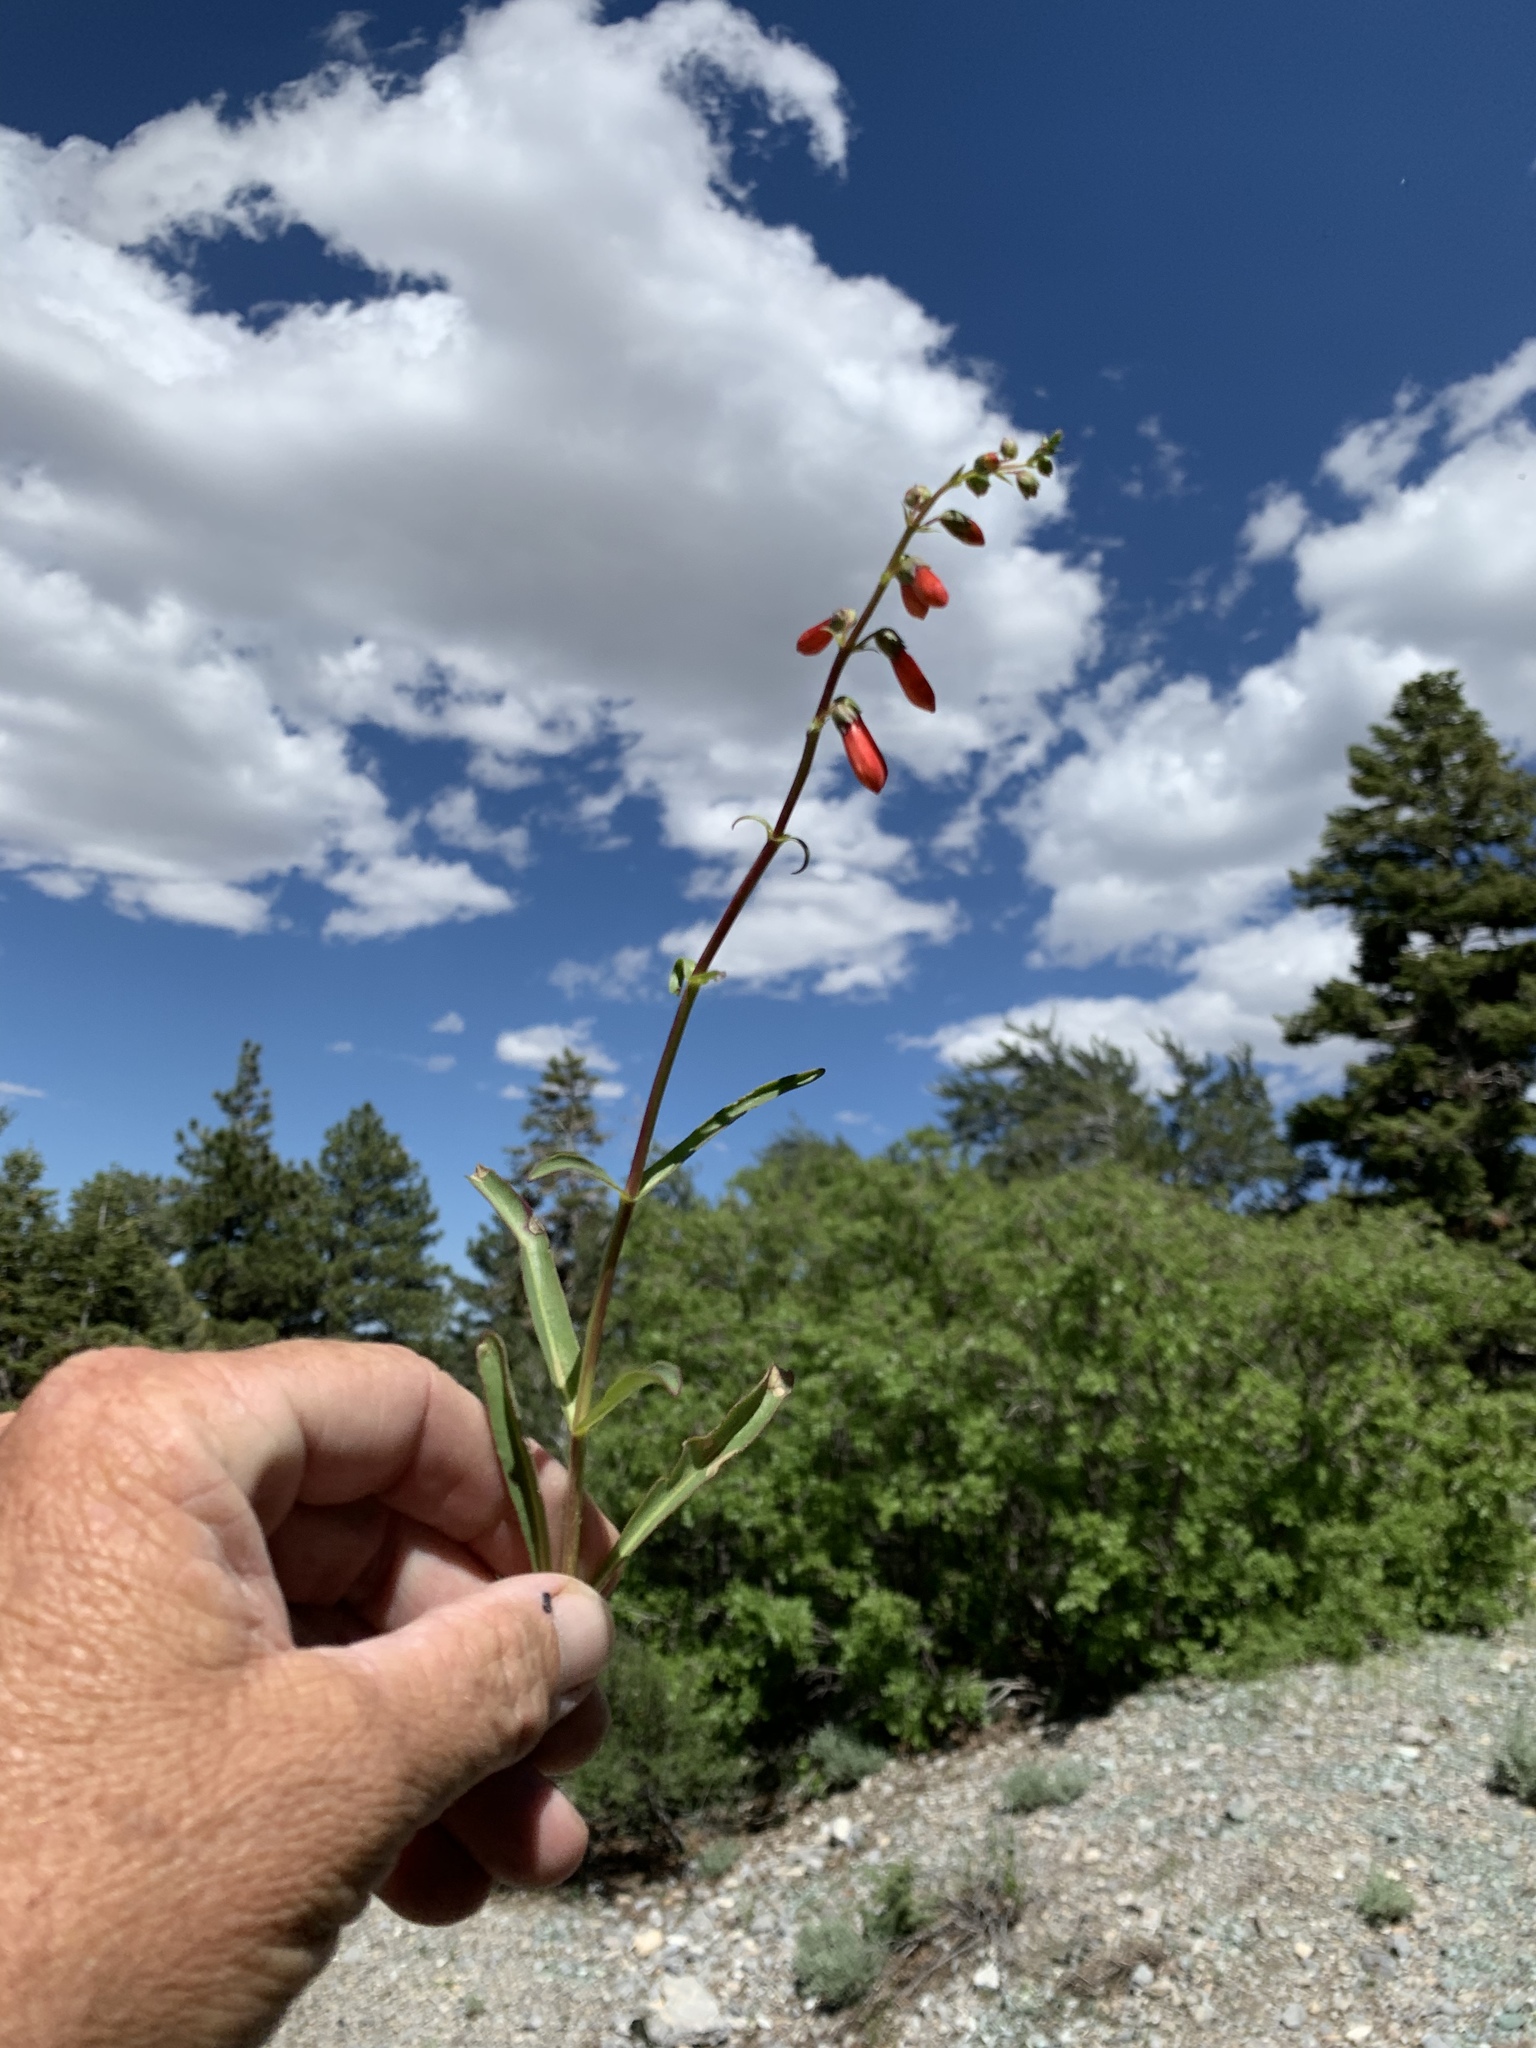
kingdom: Plantae
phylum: Tracheophyta
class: Magnoliopsida
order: Lamiales
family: Plantaginaceae
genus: Penstemon
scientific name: Penstemon eatonii
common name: Eaton's penstemon
